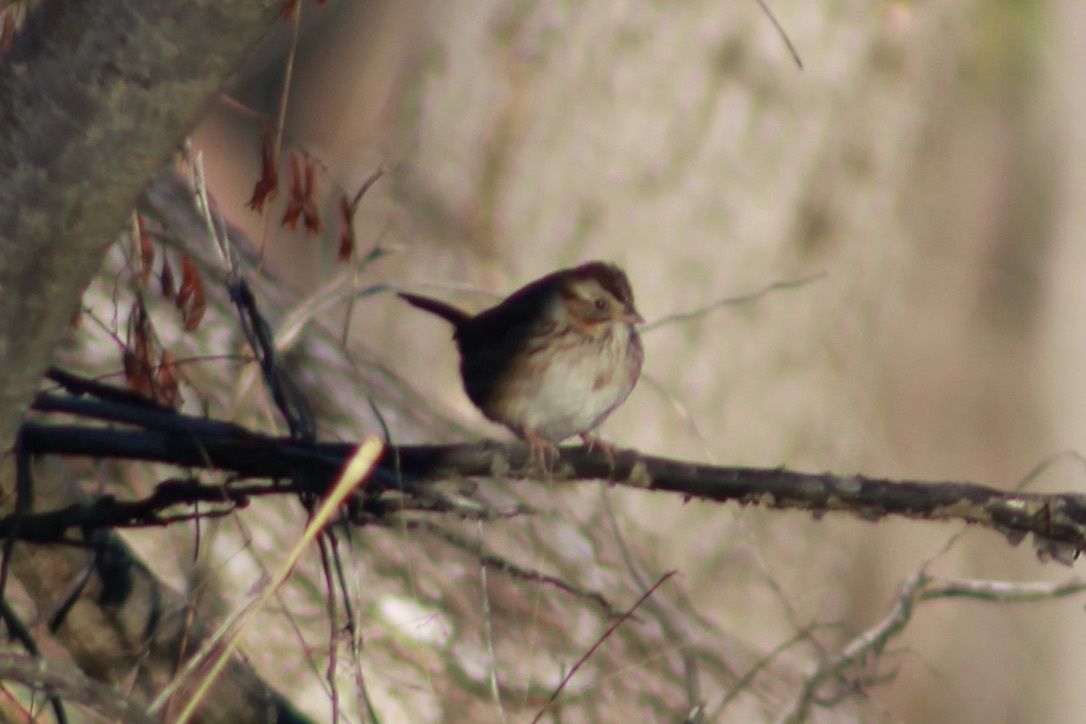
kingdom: Animalia
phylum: Chordata
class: Aves
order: Passeriformes
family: Passerellidae
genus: Melospiza
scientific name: Melospiza georgiana
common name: Swamp sparrow
